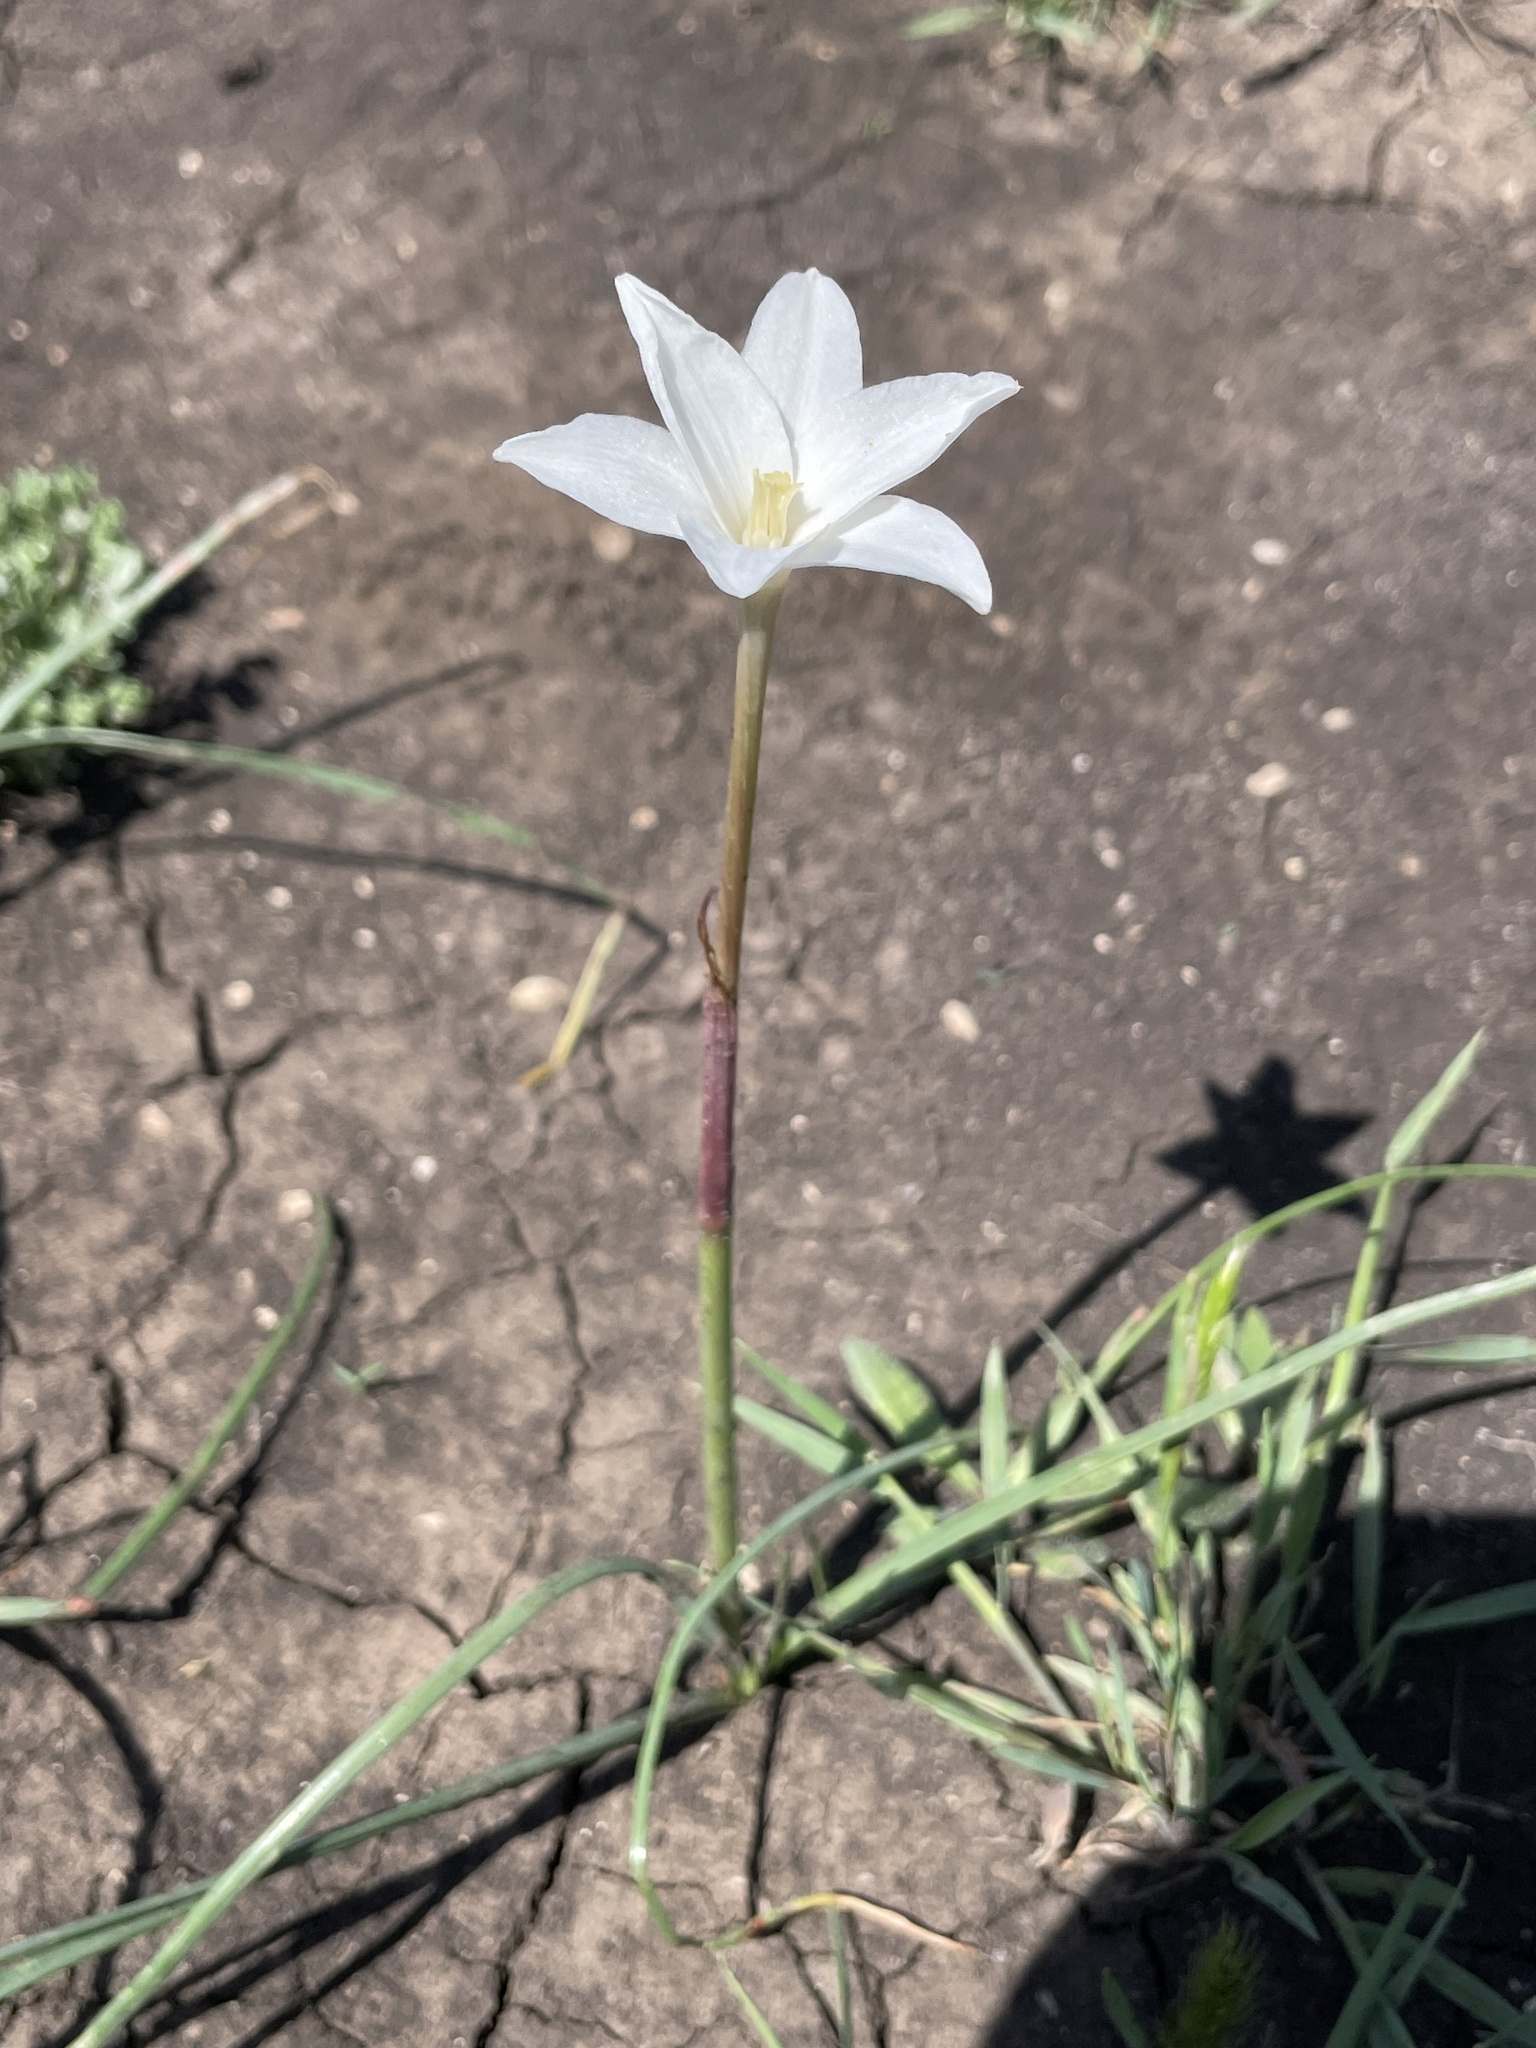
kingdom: Plantae
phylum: Tracheophyta
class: Liliopsida
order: Asparagales
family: Amaryllidaceae
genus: Zephyranthes
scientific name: Zephyranthes chlorosolen
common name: Evening rain-lily
